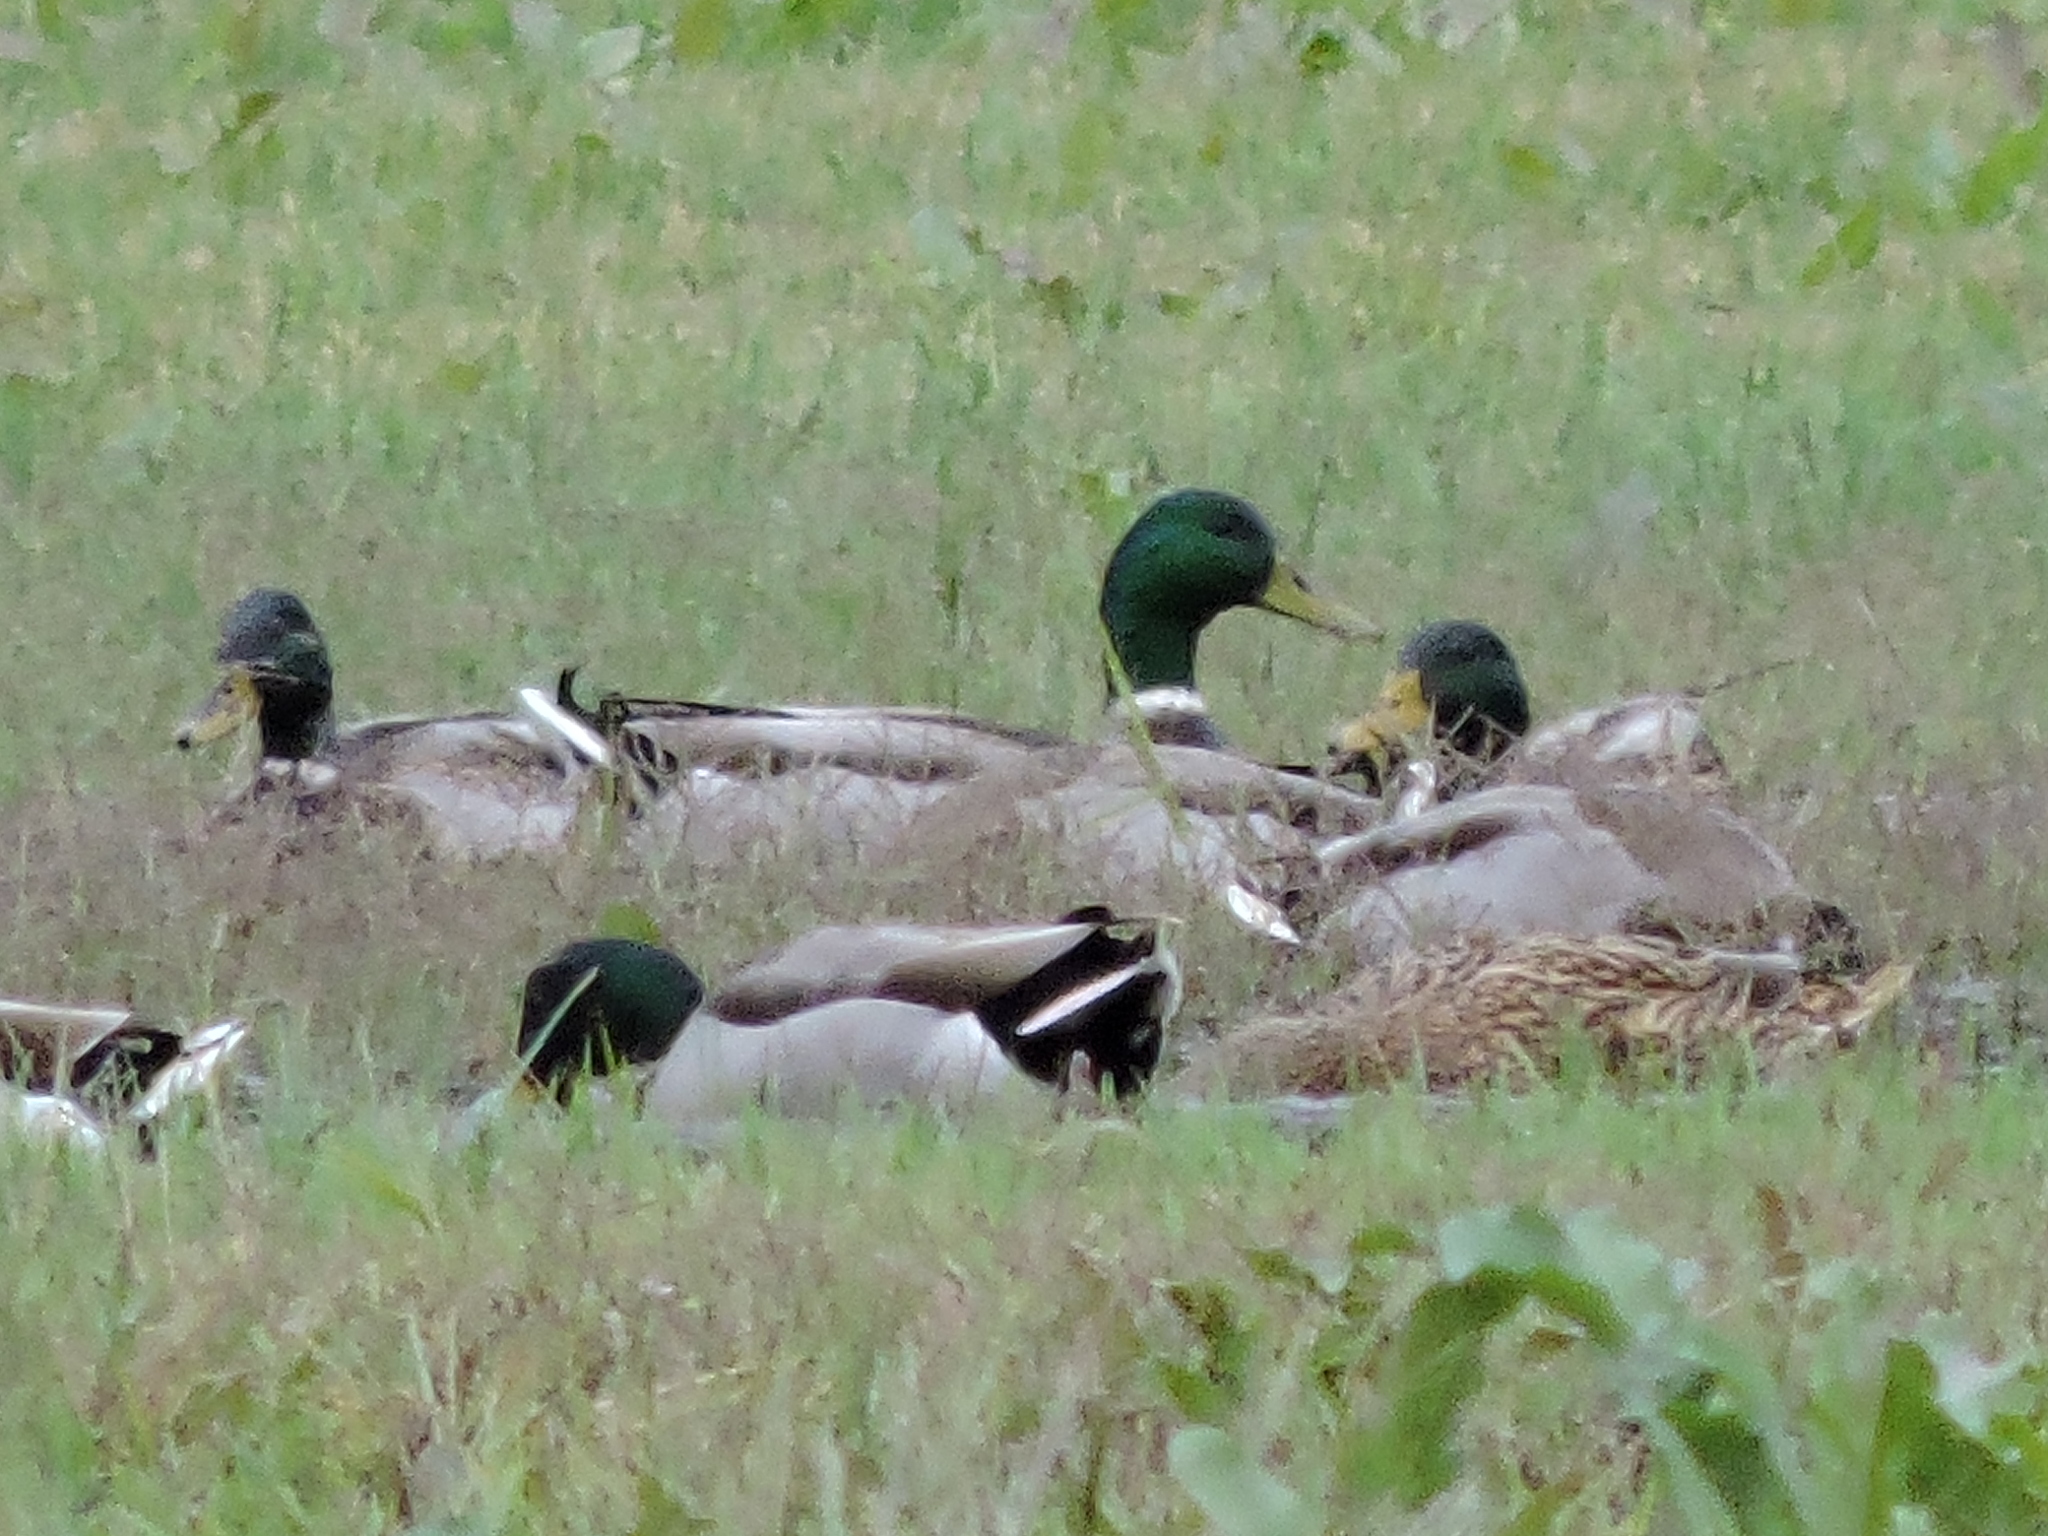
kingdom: Animalia
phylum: Chordata
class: Aves
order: Anseriformes
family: Anatidae
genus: Anas
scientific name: Anas platyrhynchos
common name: Mallard
